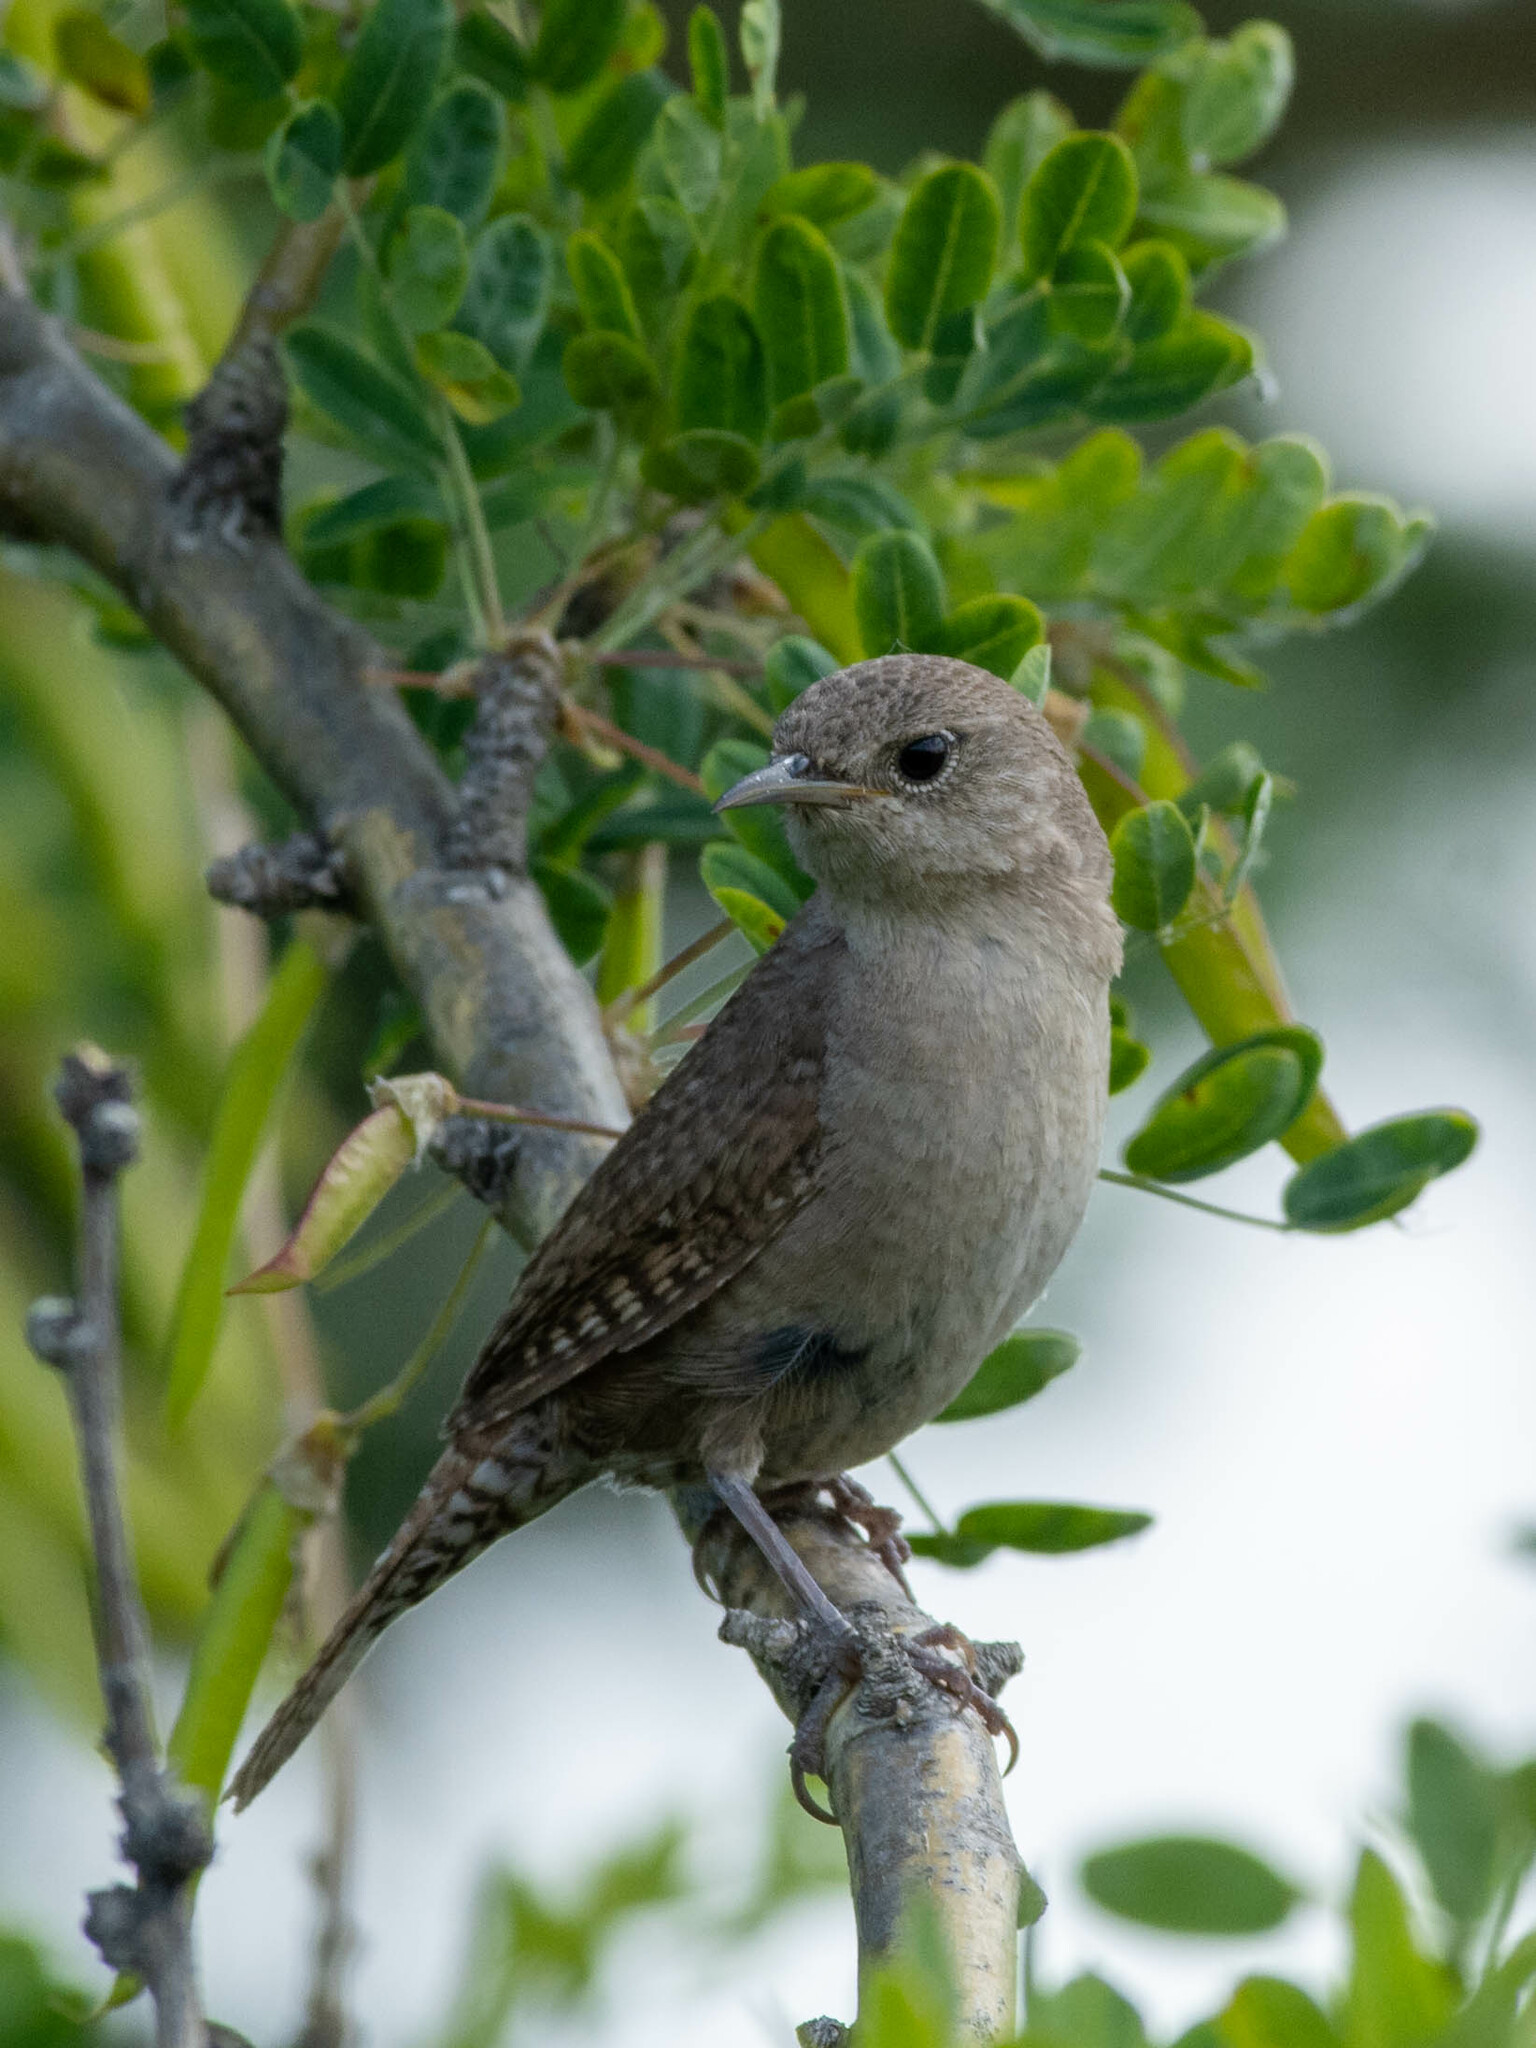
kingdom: Animalia
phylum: Chordata
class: Aves
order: Passeriformes
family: Troglodytidae
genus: Troglodytes
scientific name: Troglodytes aedon
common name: House wren
